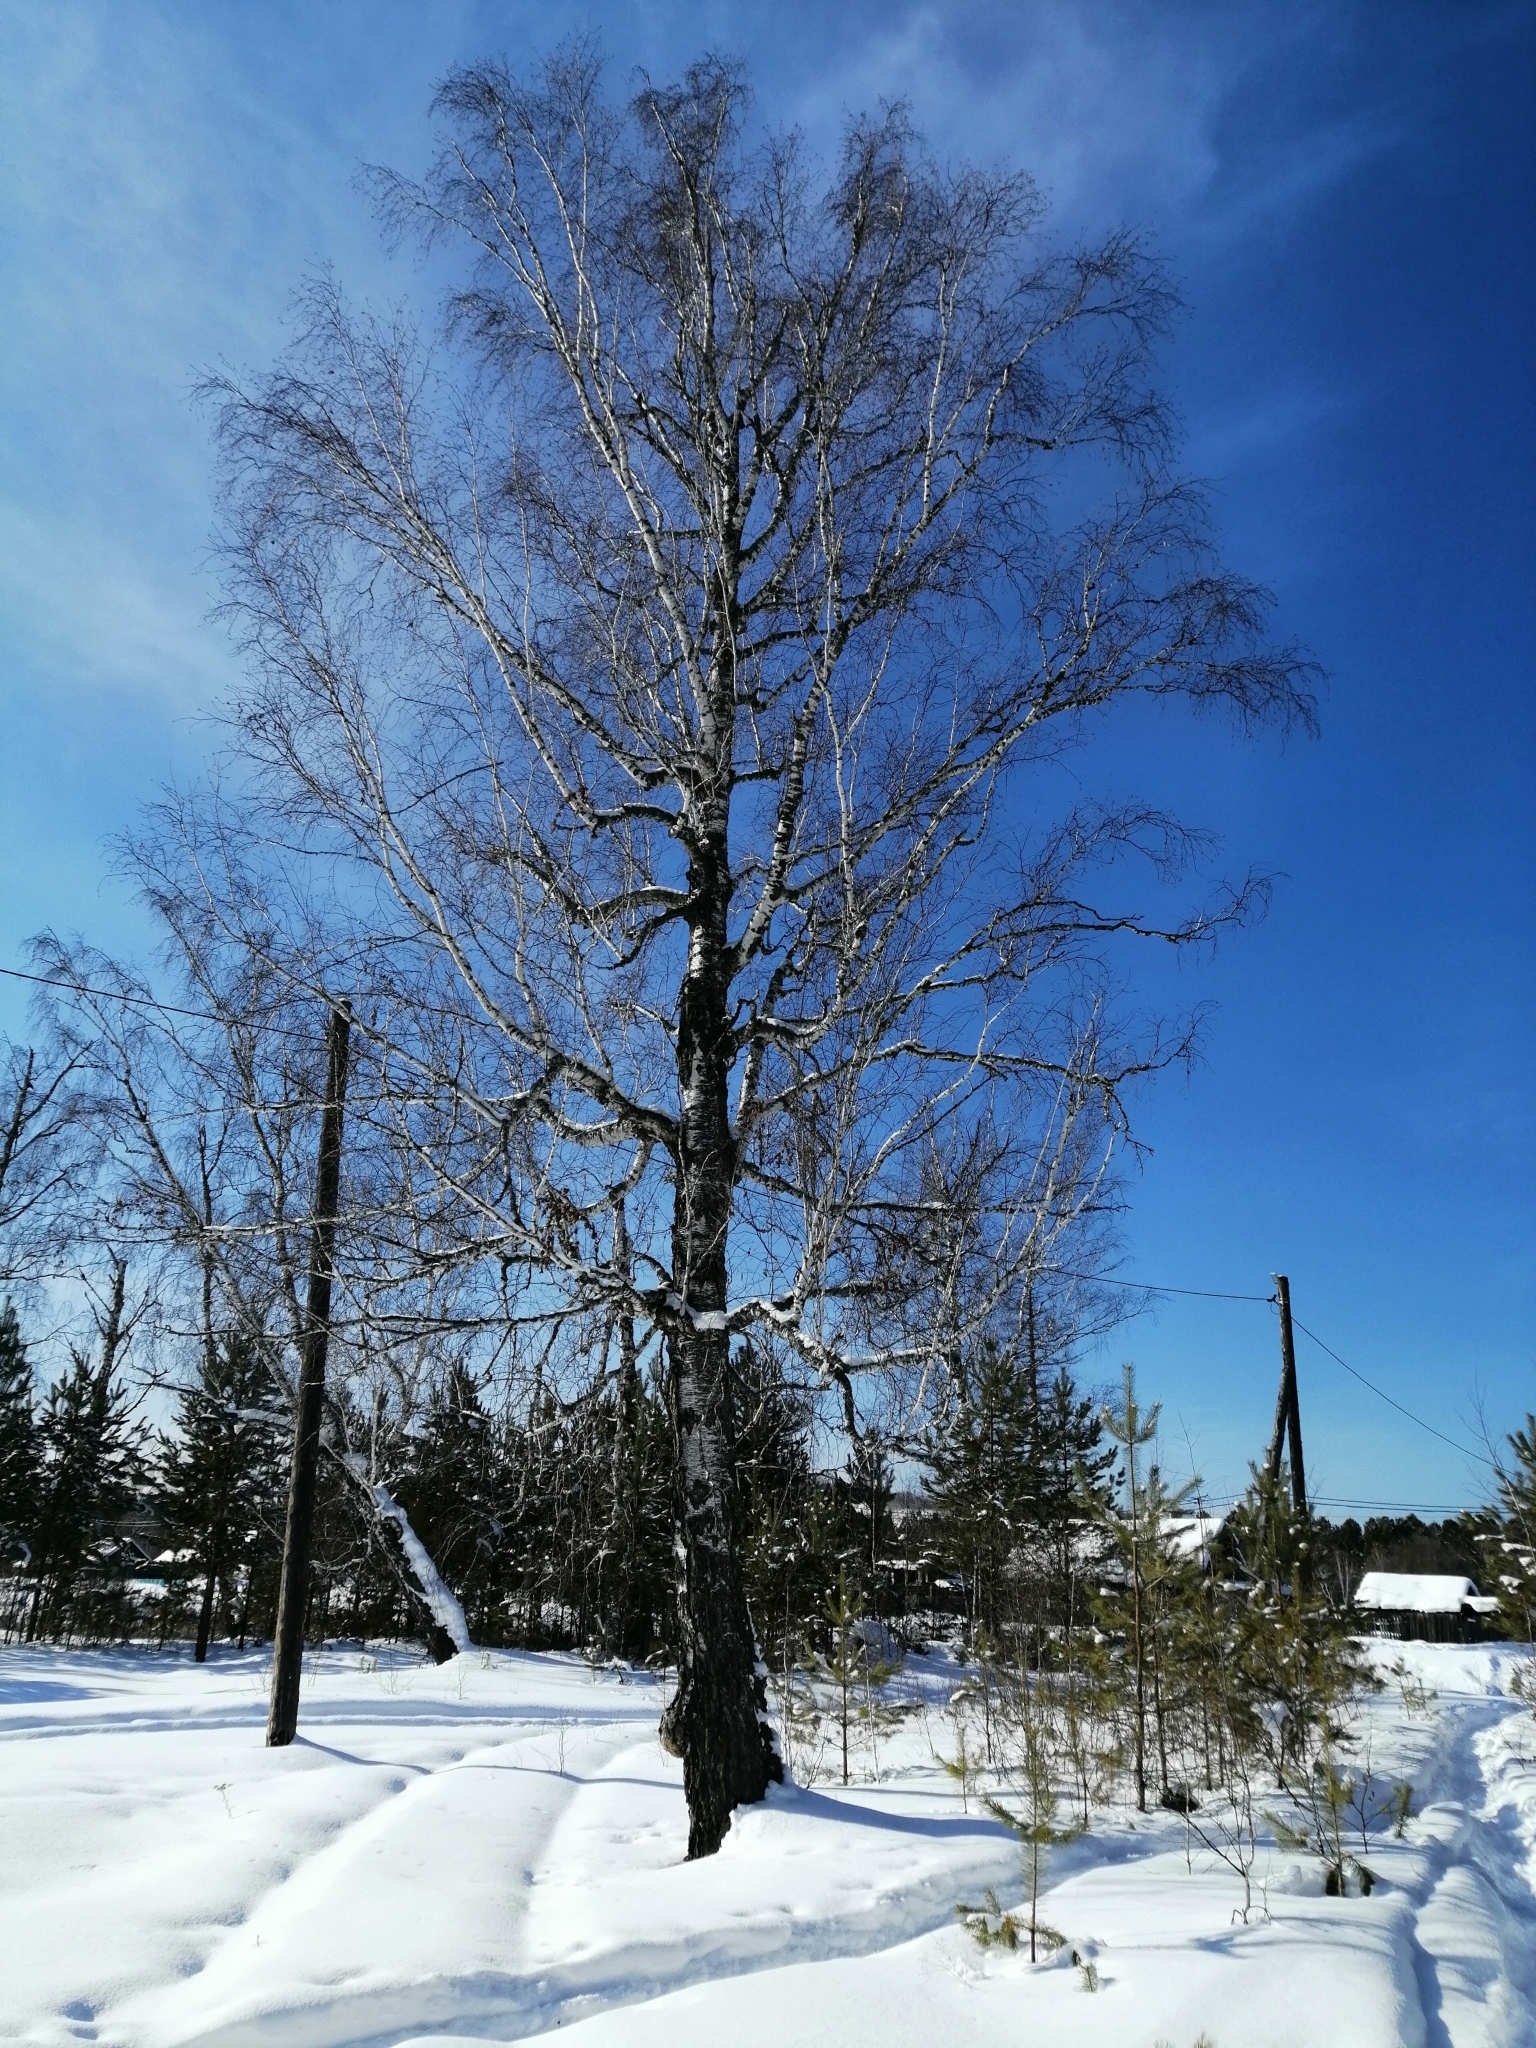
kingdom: Plantae
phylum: Tracheophyta
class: Magnoliopsida
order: Fagales
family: Betulaceae
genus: Betula
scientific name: Betula pendula
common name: Silver birch
